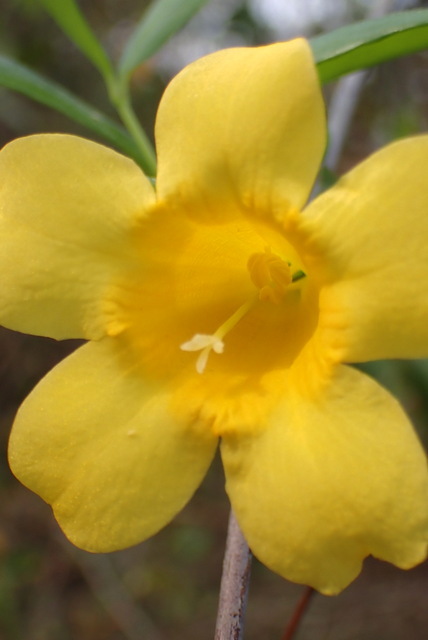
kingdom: Plantae
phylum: Tracheophyta
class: Magnoliopsida
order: Gentianales
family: Gelsemiaceae
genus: Gelsemium
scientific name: Gelsemium sempervirens
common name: Carolina-jasmine
